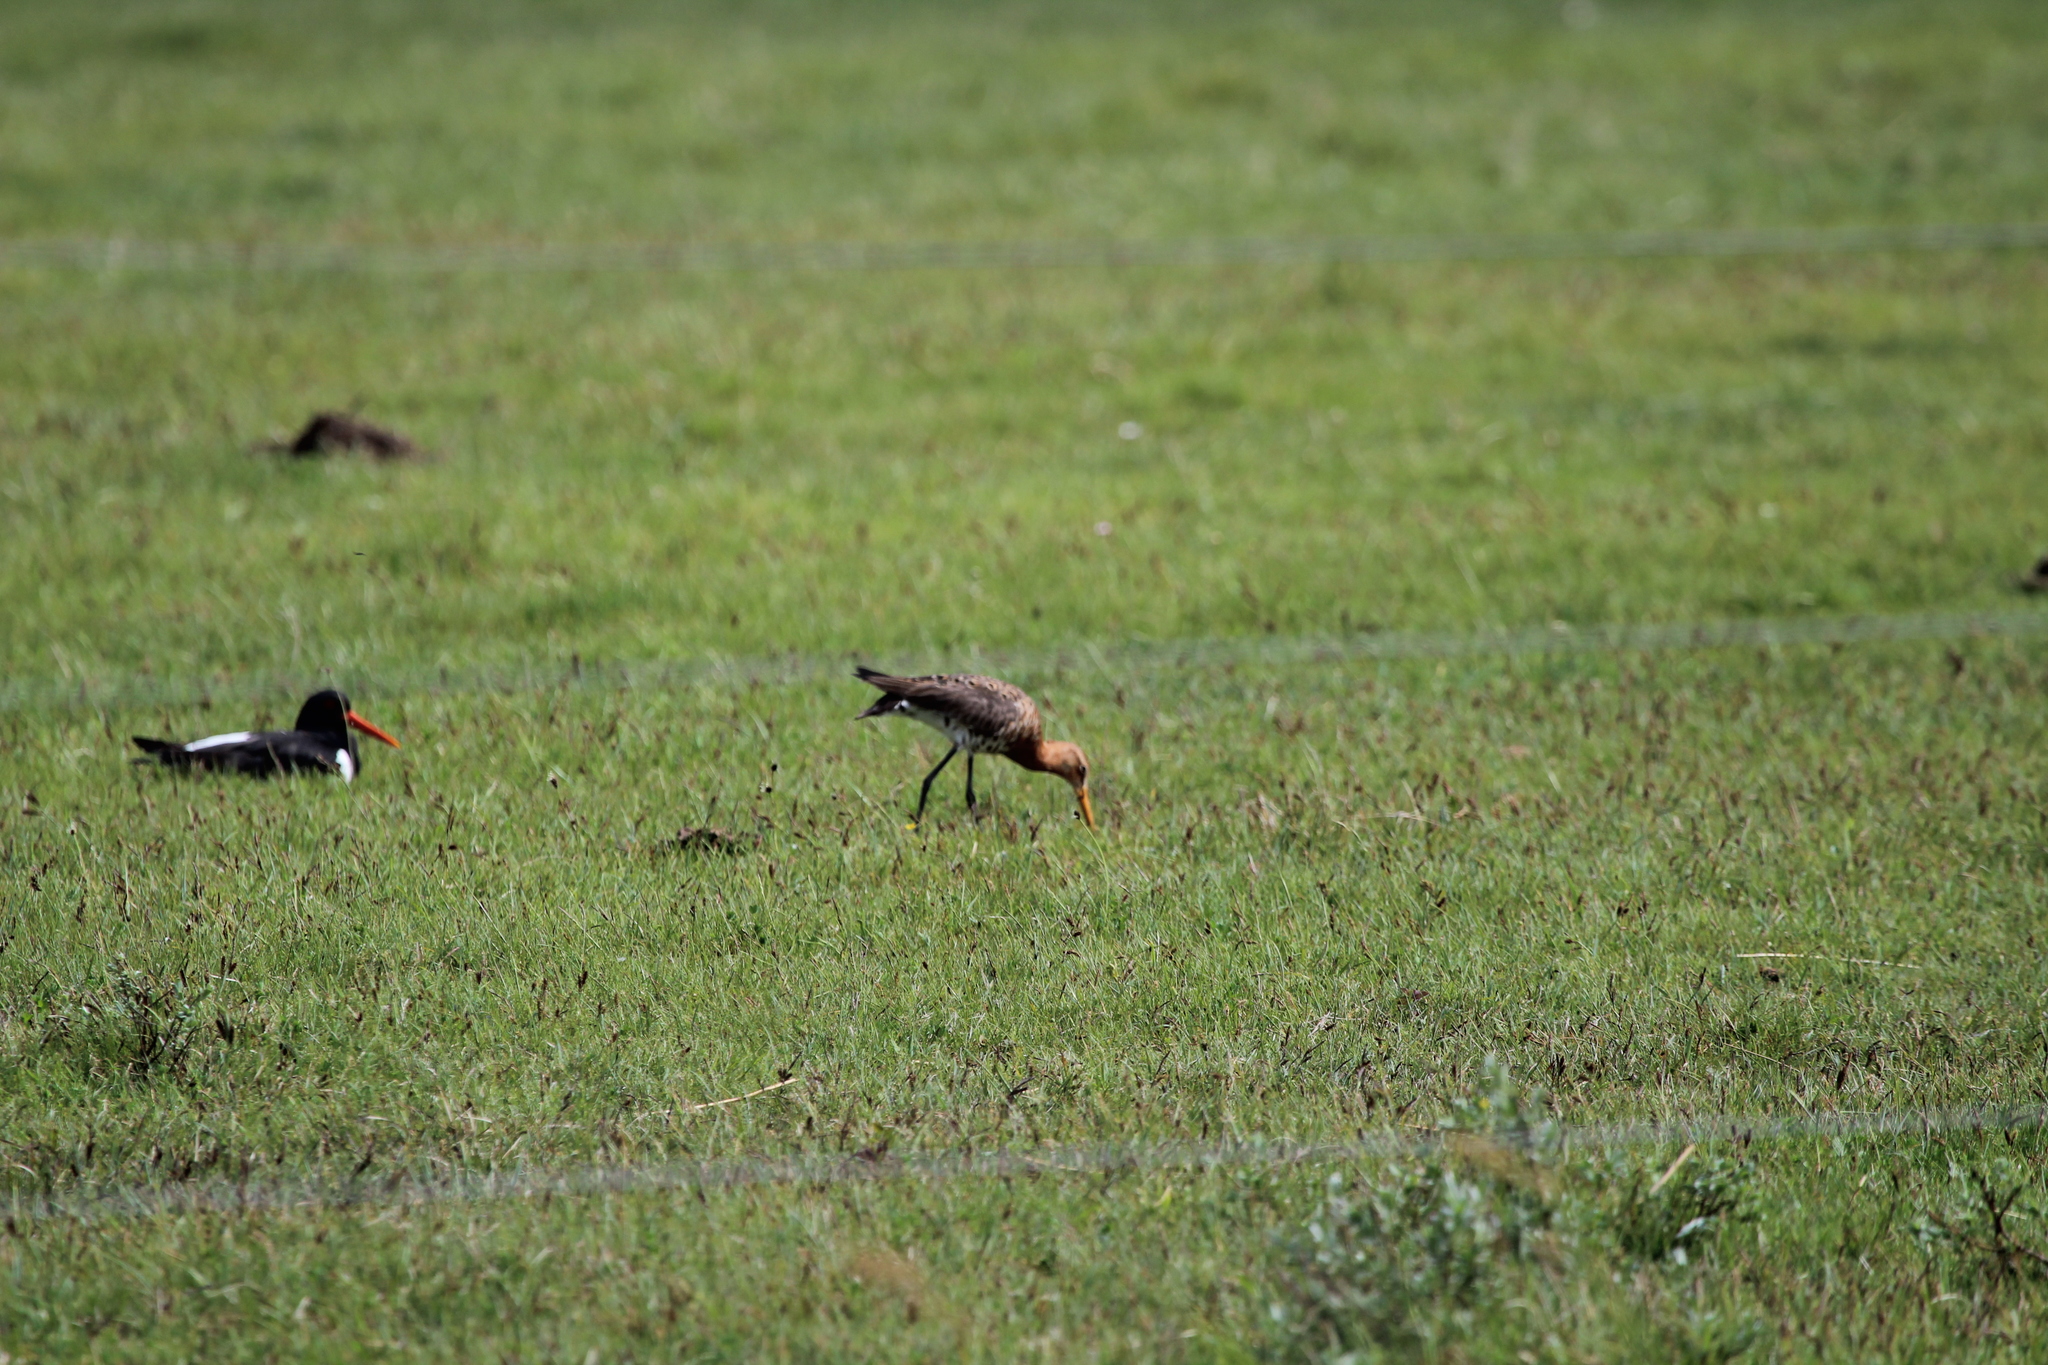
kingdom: Animalia
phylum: Chordata
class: Aves
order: Charadriiformes
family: Scolopacidae
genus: Limosa
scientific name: Limosa limosa
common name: Black-tailed godwit
